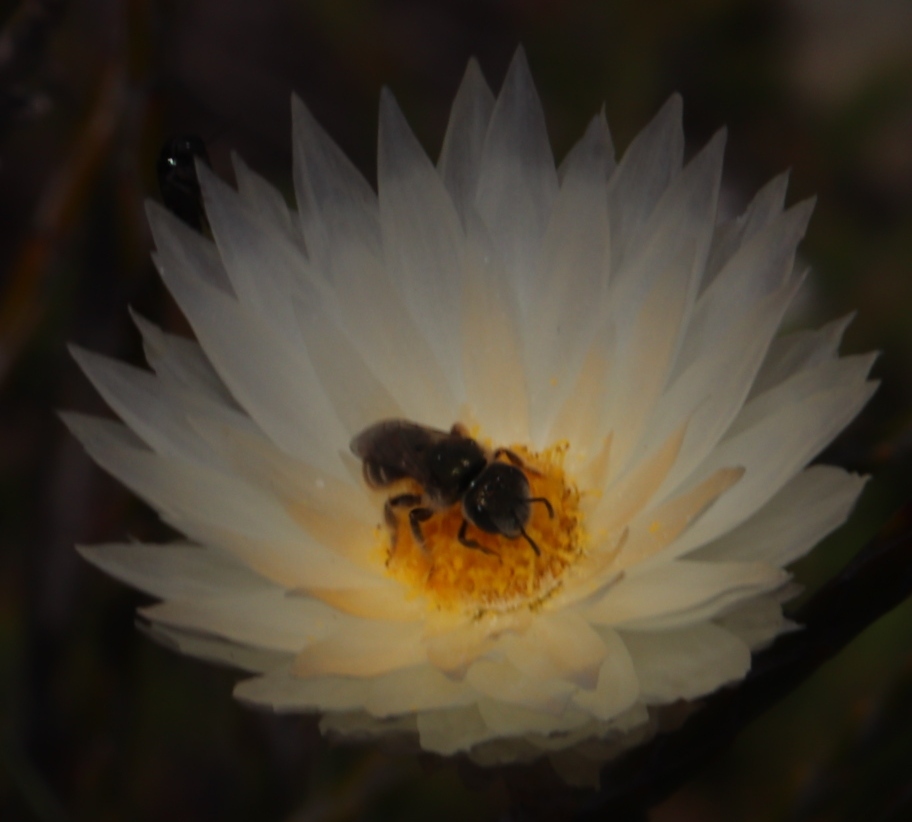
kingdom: Plantae
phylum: Tracheophyta
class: Magnoliopsida
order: Asterales
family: Asteraceae
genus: Edmondia
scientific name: Edmondia sesamoides
